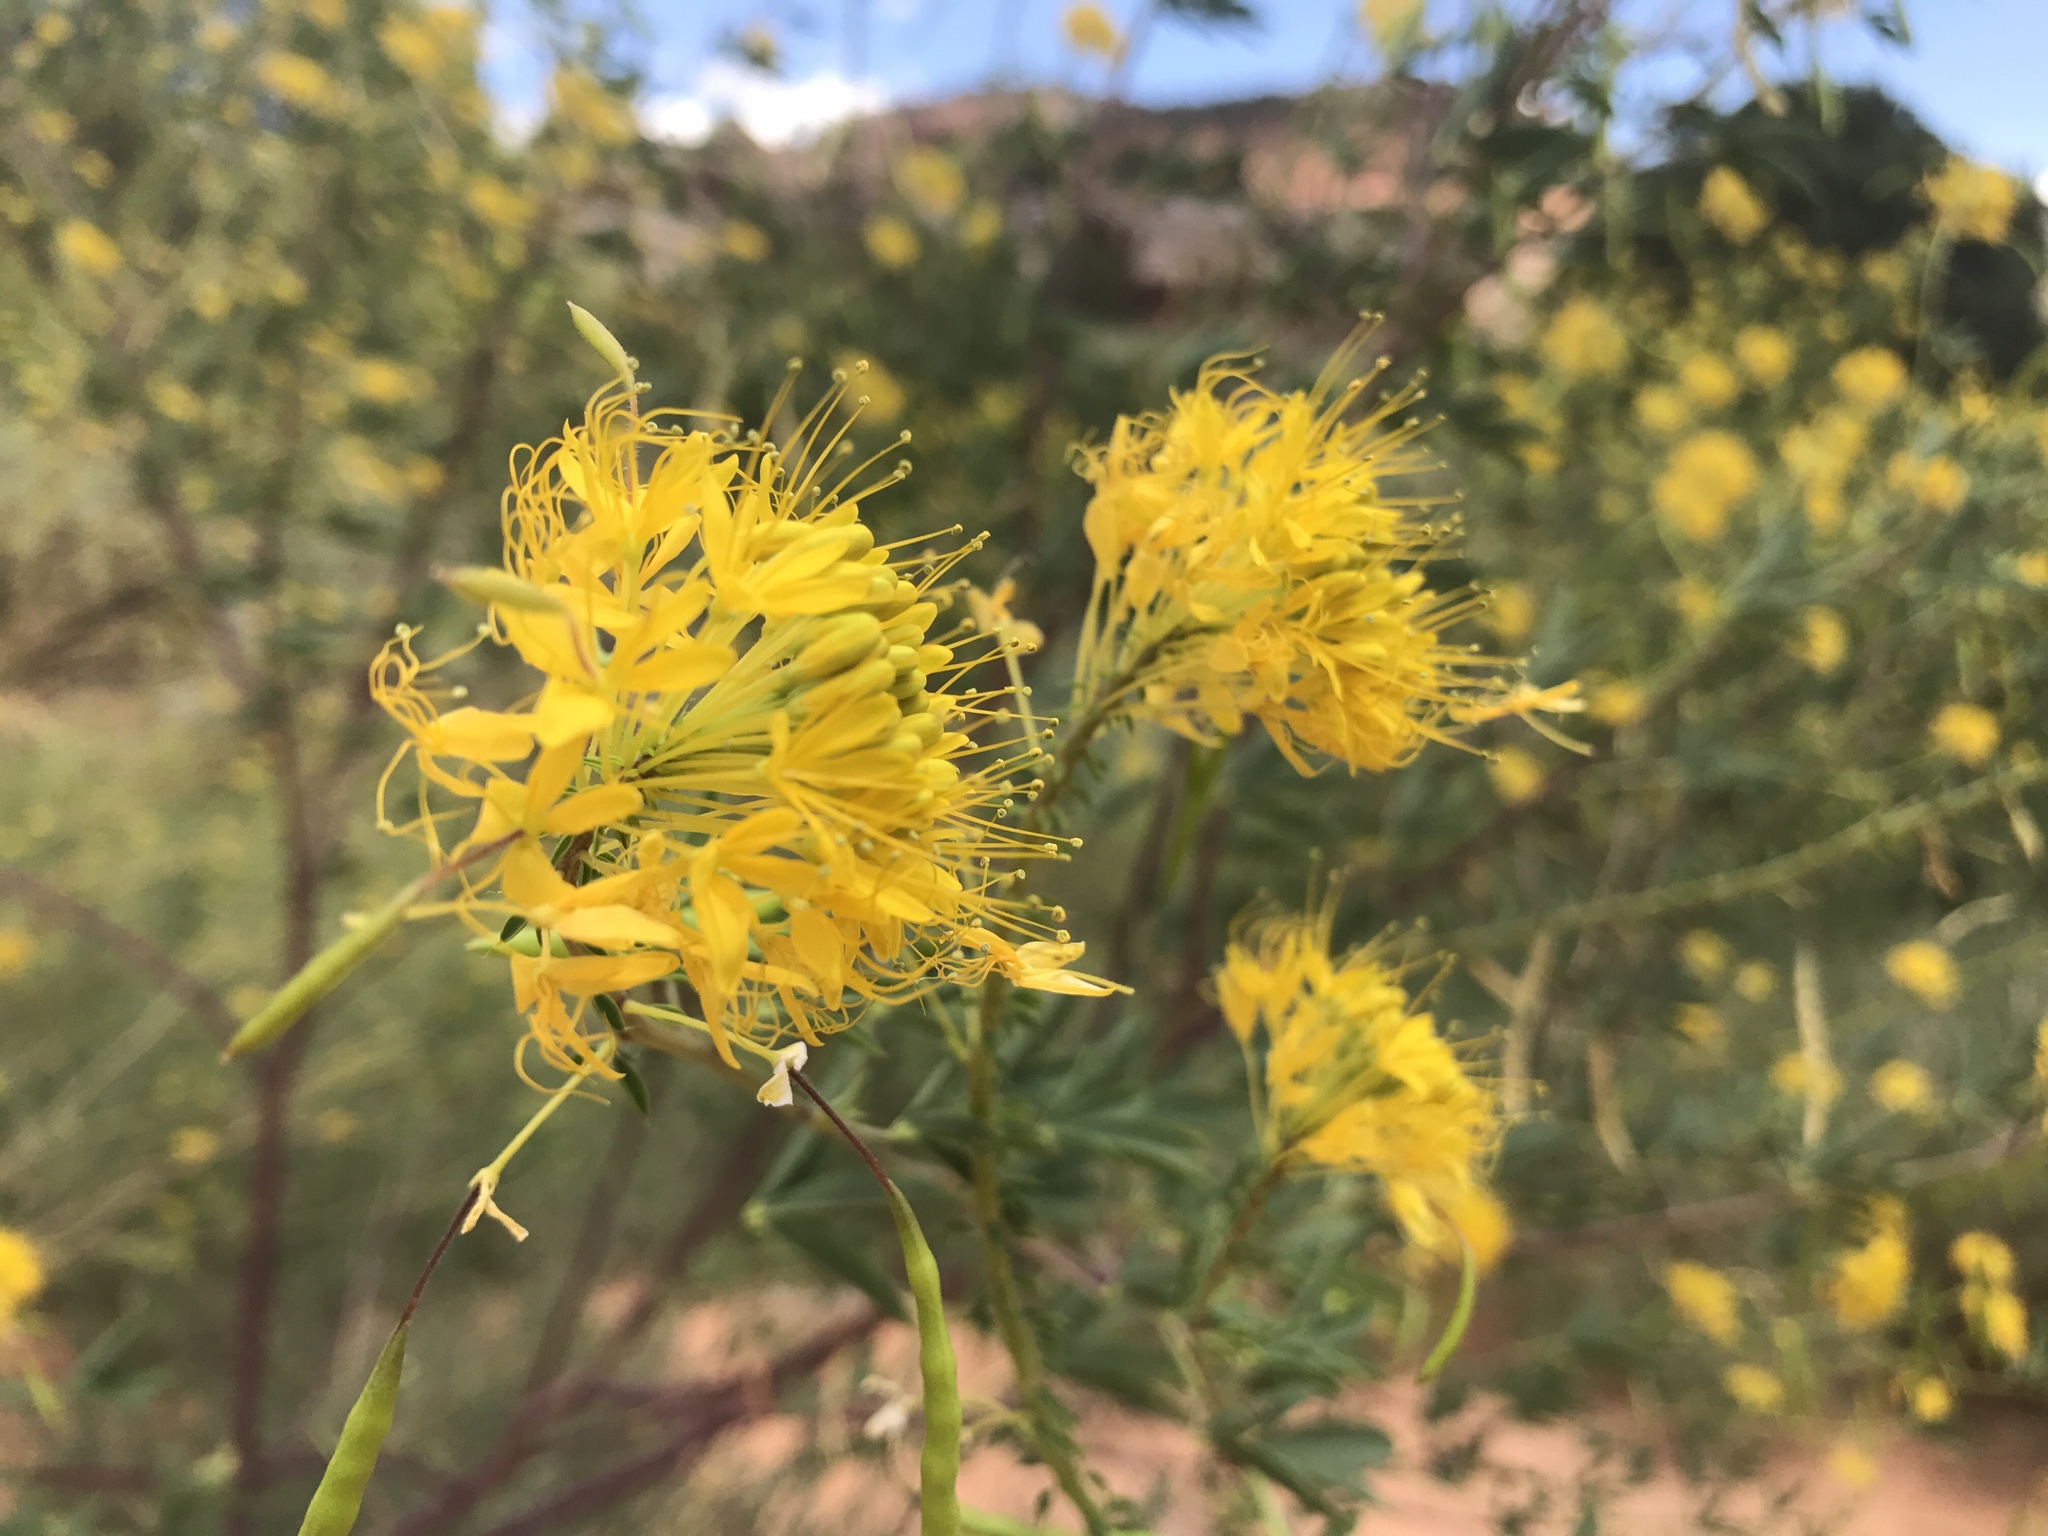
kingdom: Plantae
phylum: Tracheophyta
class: Magnoliopsida
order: Brassicales
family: Cleomaceae
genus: Cleomella
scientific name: Cleomella lutea
